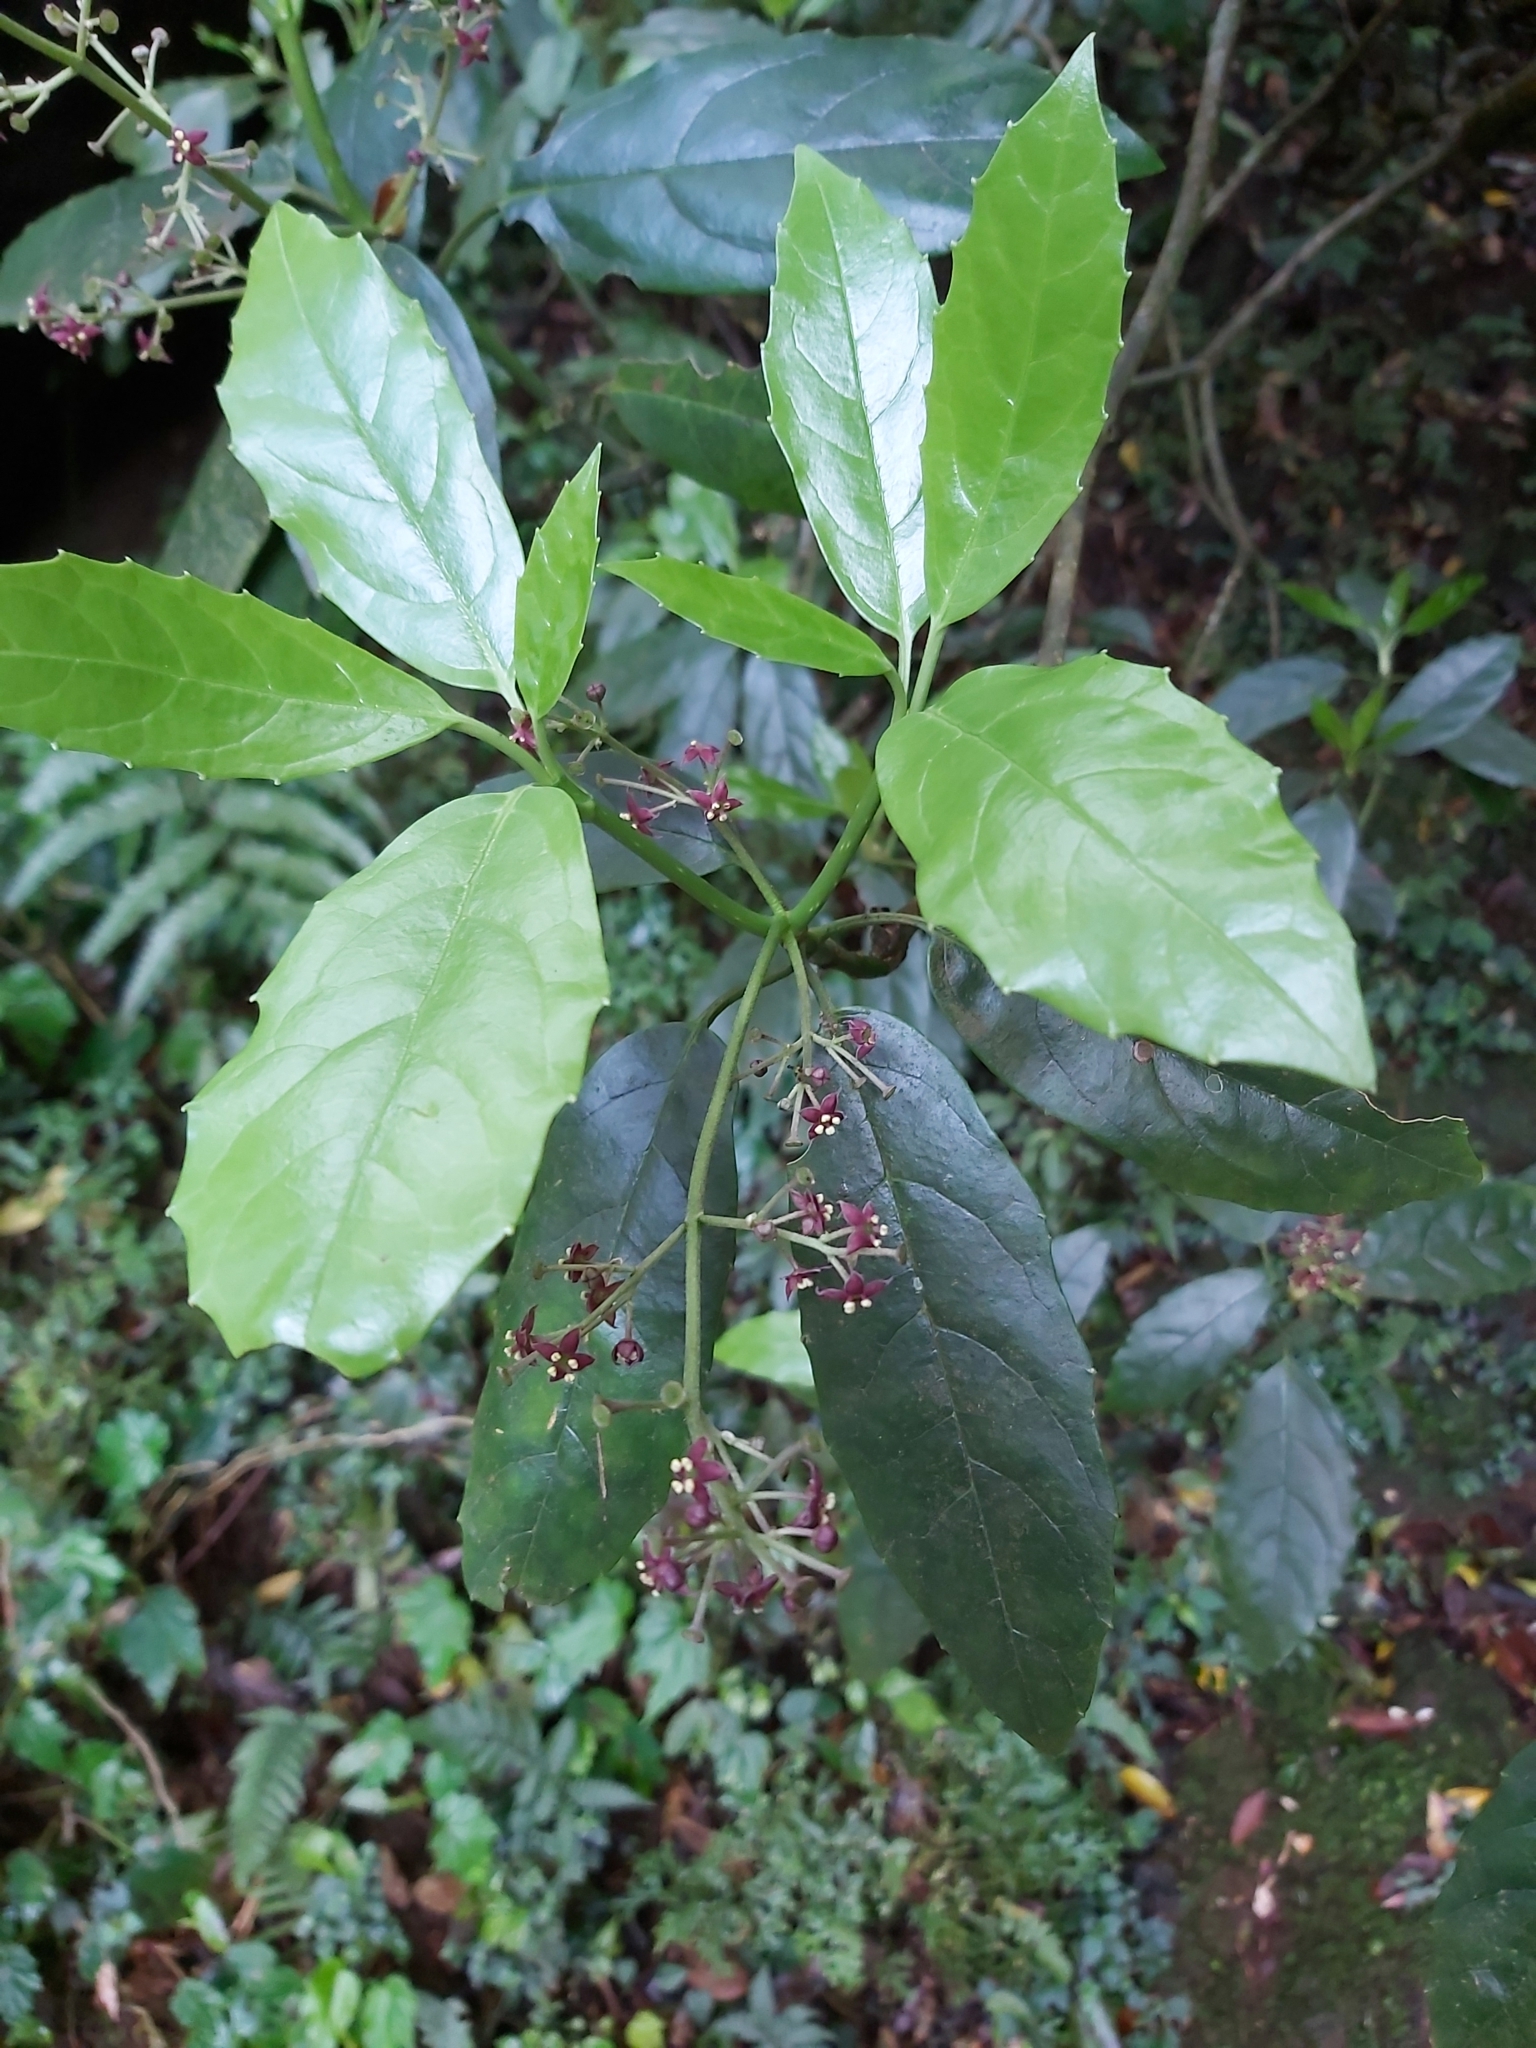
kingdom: Plantae
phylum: Tracheophyta
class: Magnoliopsida
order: Garryales
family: Garryaceae
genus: Aucuba
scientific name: Aucuba japonica
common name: Spotted-laurel
